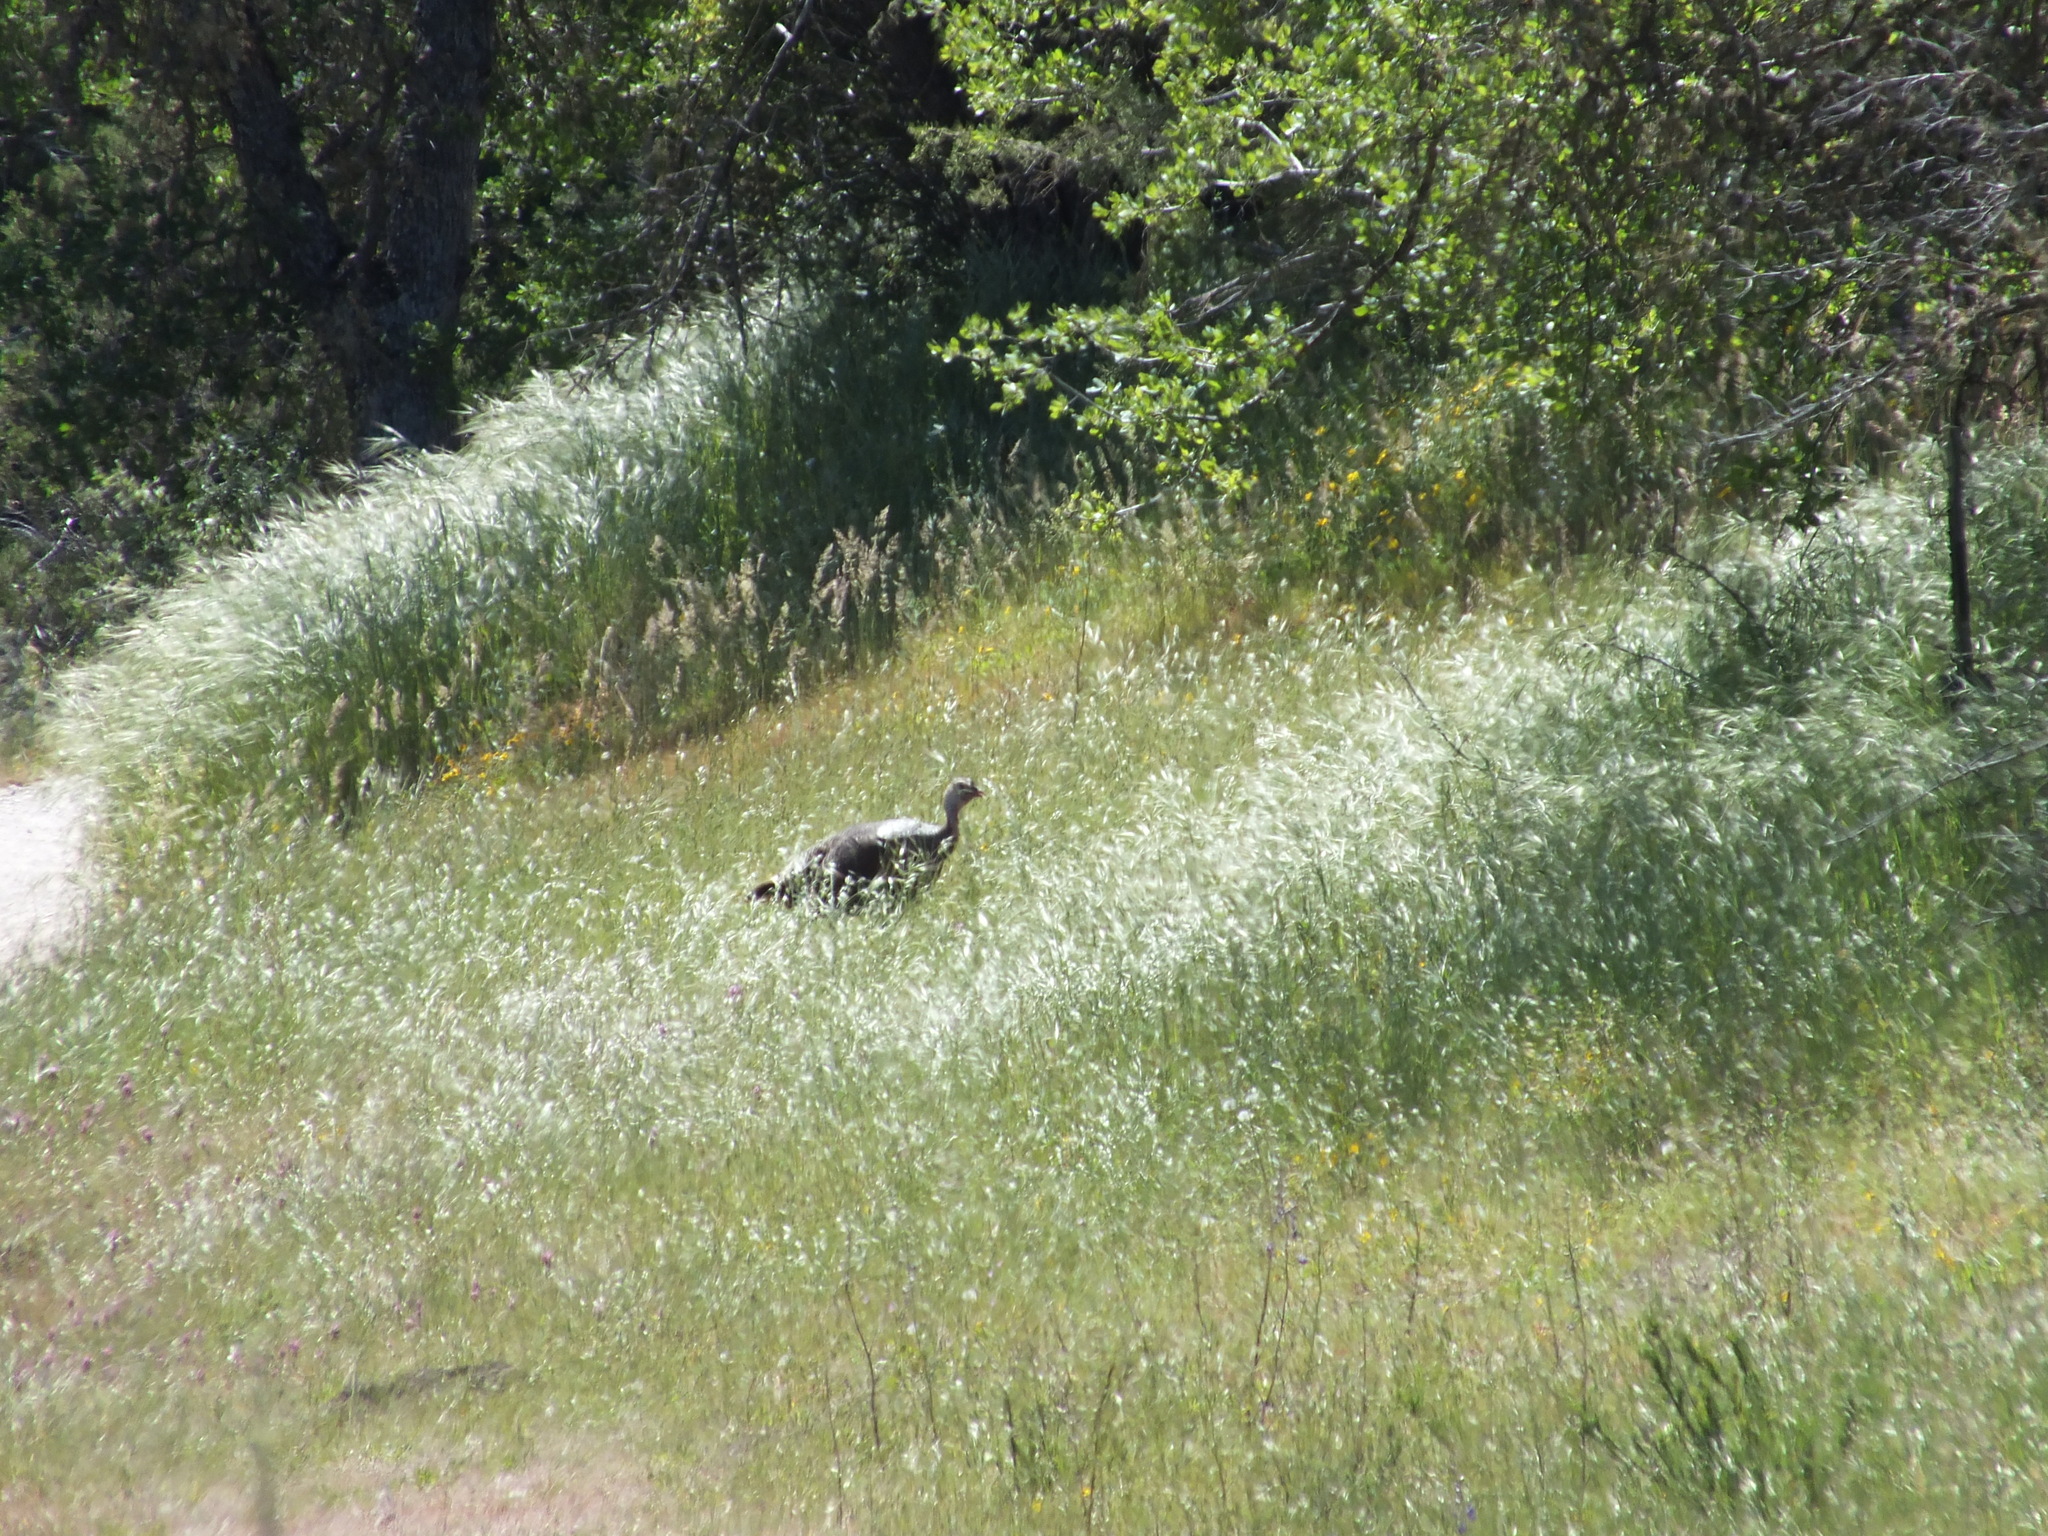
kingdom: Animalia
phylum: Chordata
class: Aves
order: Galliformes
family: Phasianidae
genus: Meleagris
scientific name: Meleagris gallopavo
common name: Wild turkey
